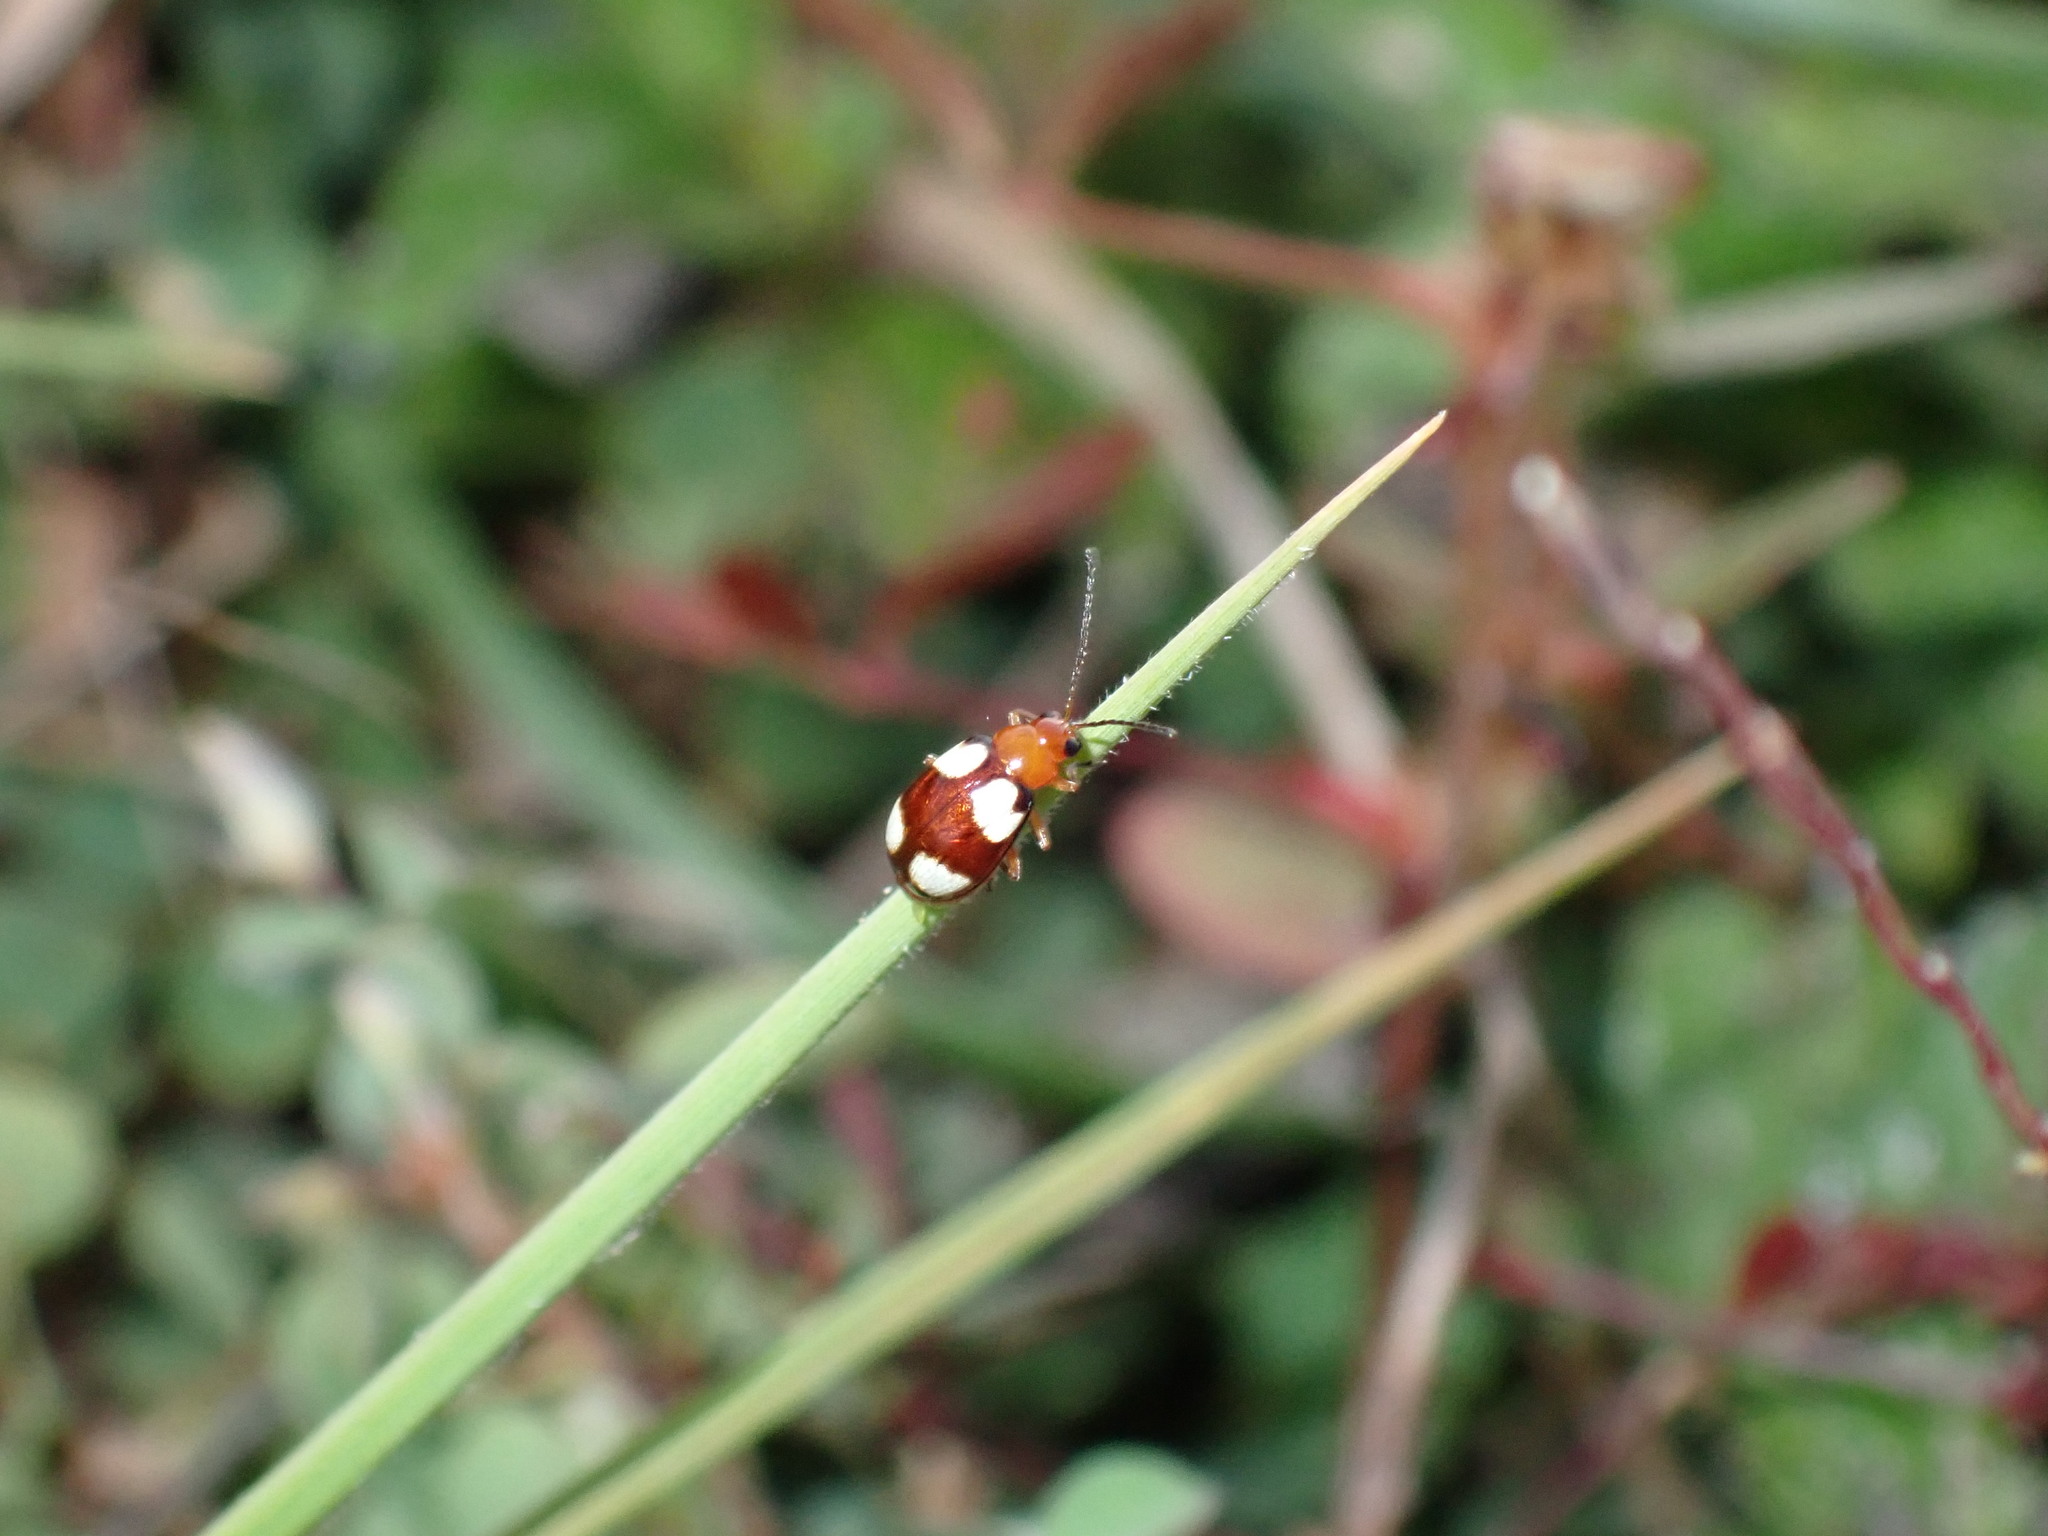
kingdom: Animalia
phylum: Arthropoda
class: Insecta
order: Coleoptera
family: Chrysomelidae
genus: Monolepta
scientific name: Monolepta signata
